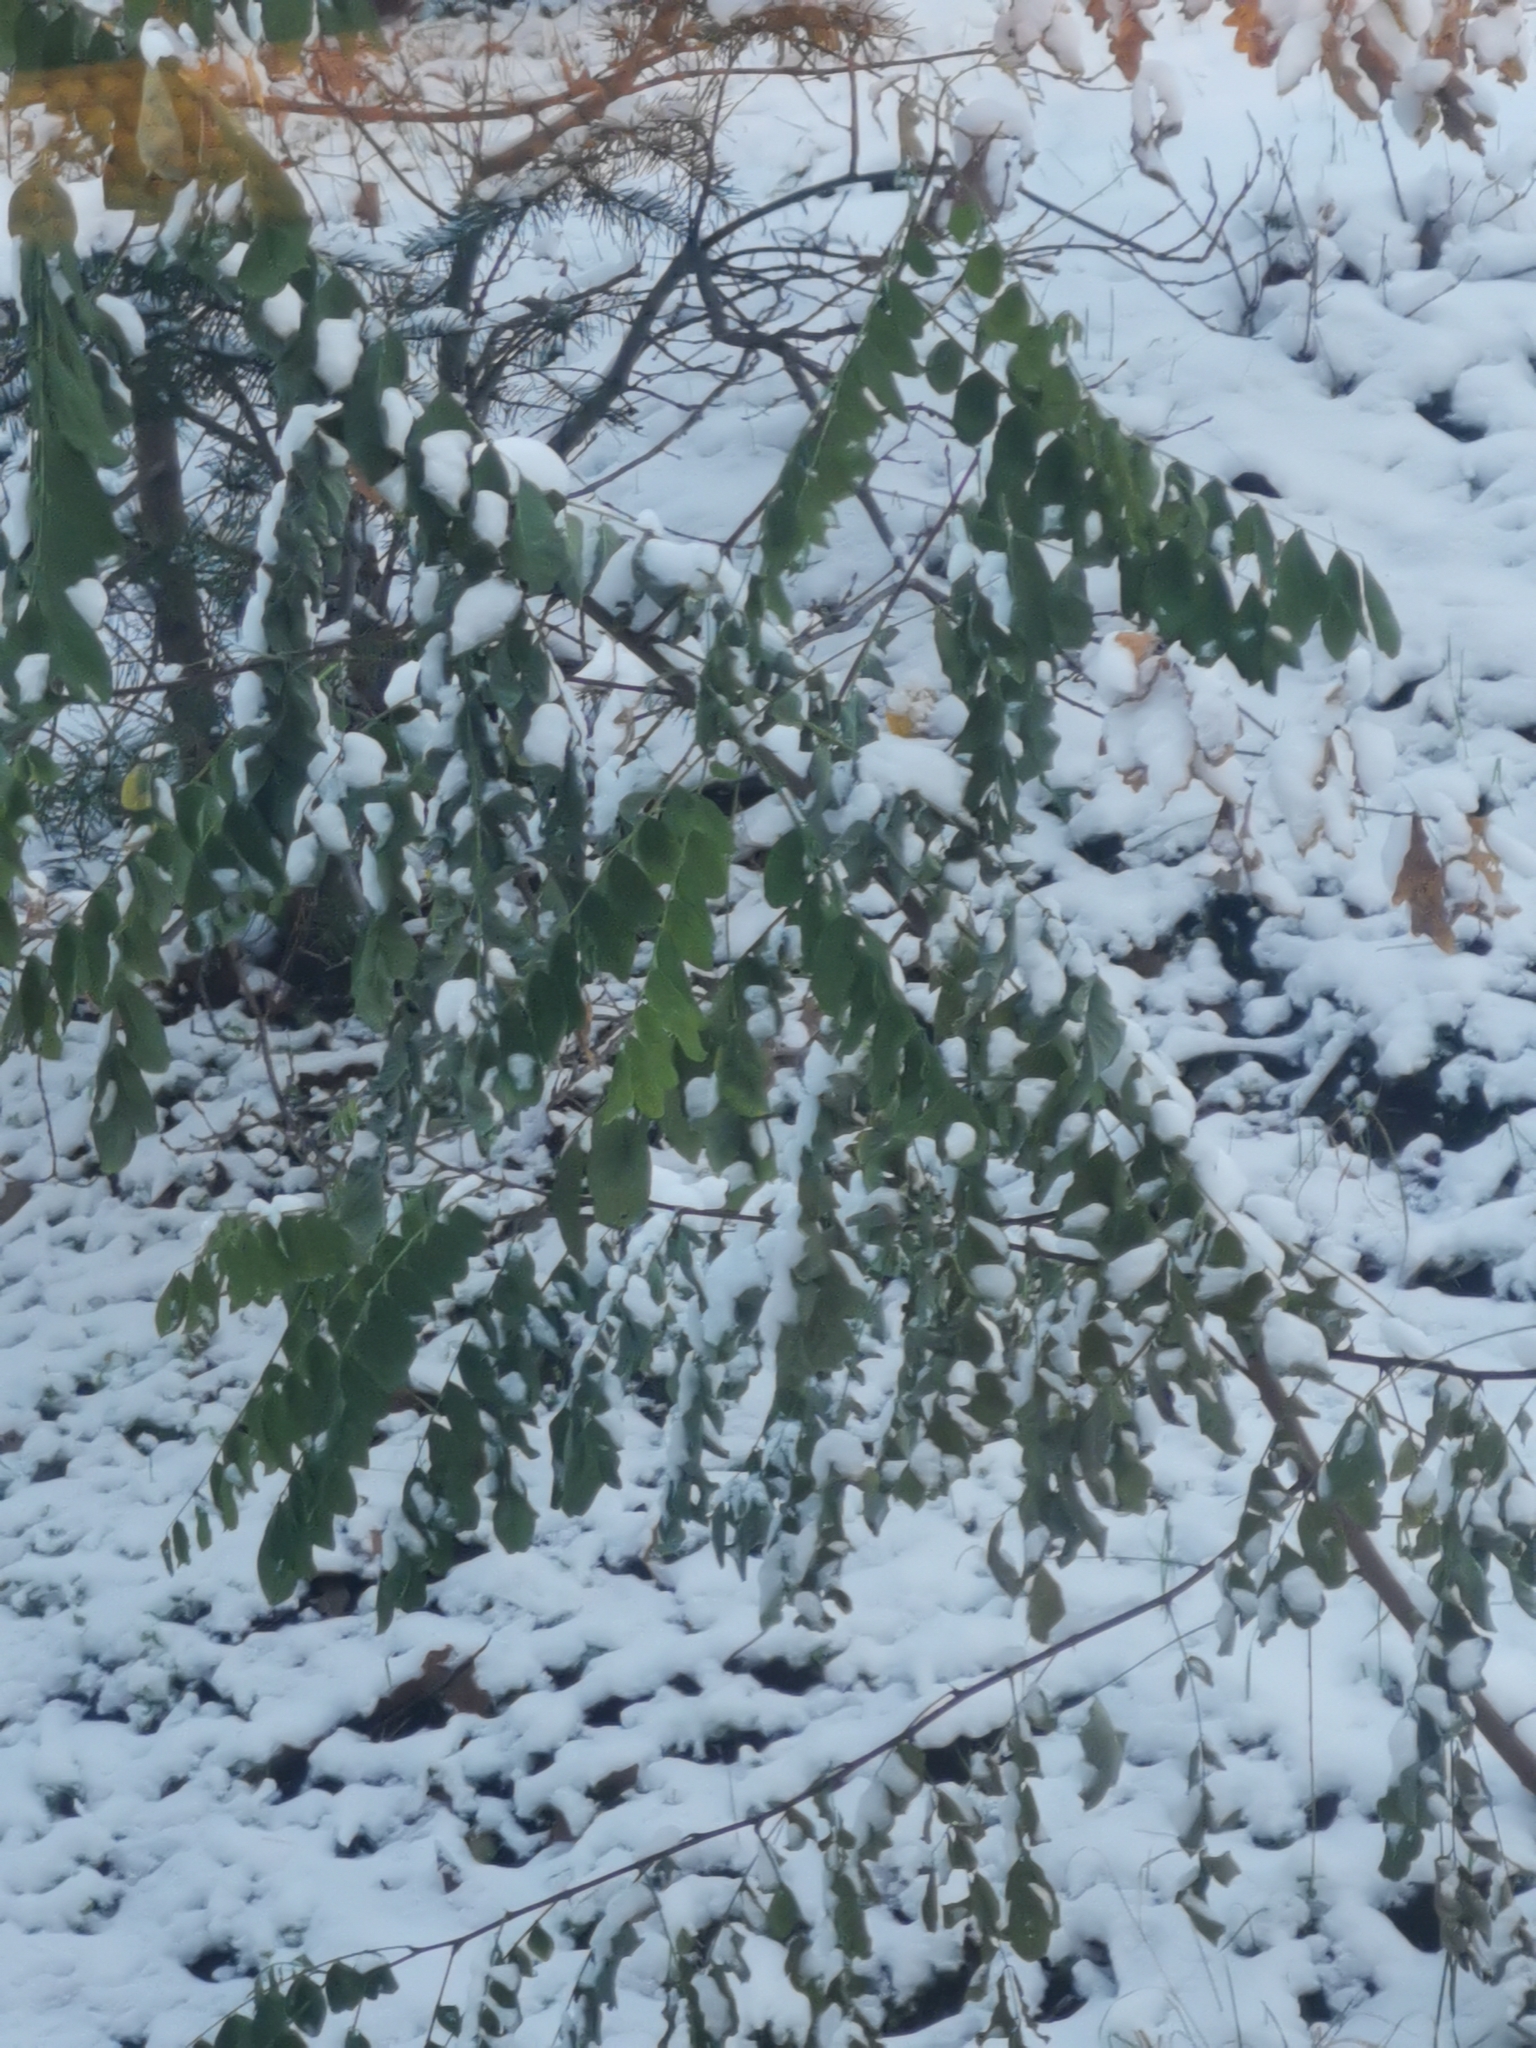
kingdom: Plantae
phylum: Tracheophyta
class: Magnoliopsida
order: Fabales
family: Fabaceae
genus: Robinia
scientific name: Robinia pseudoacacia
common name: Black locust
